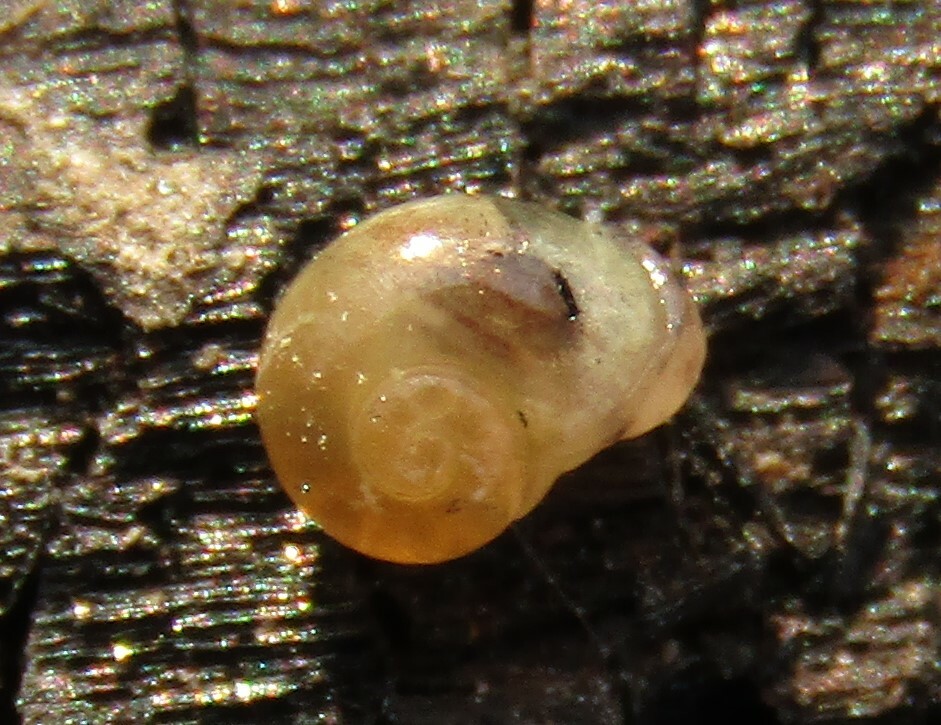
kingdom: Animalia
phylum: Mollusca
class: Gastropoda
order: Stylommatophora
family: Vitrinidae
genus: Vitrina
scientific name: Vitrina pellucida
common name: Pellucid glass snail
